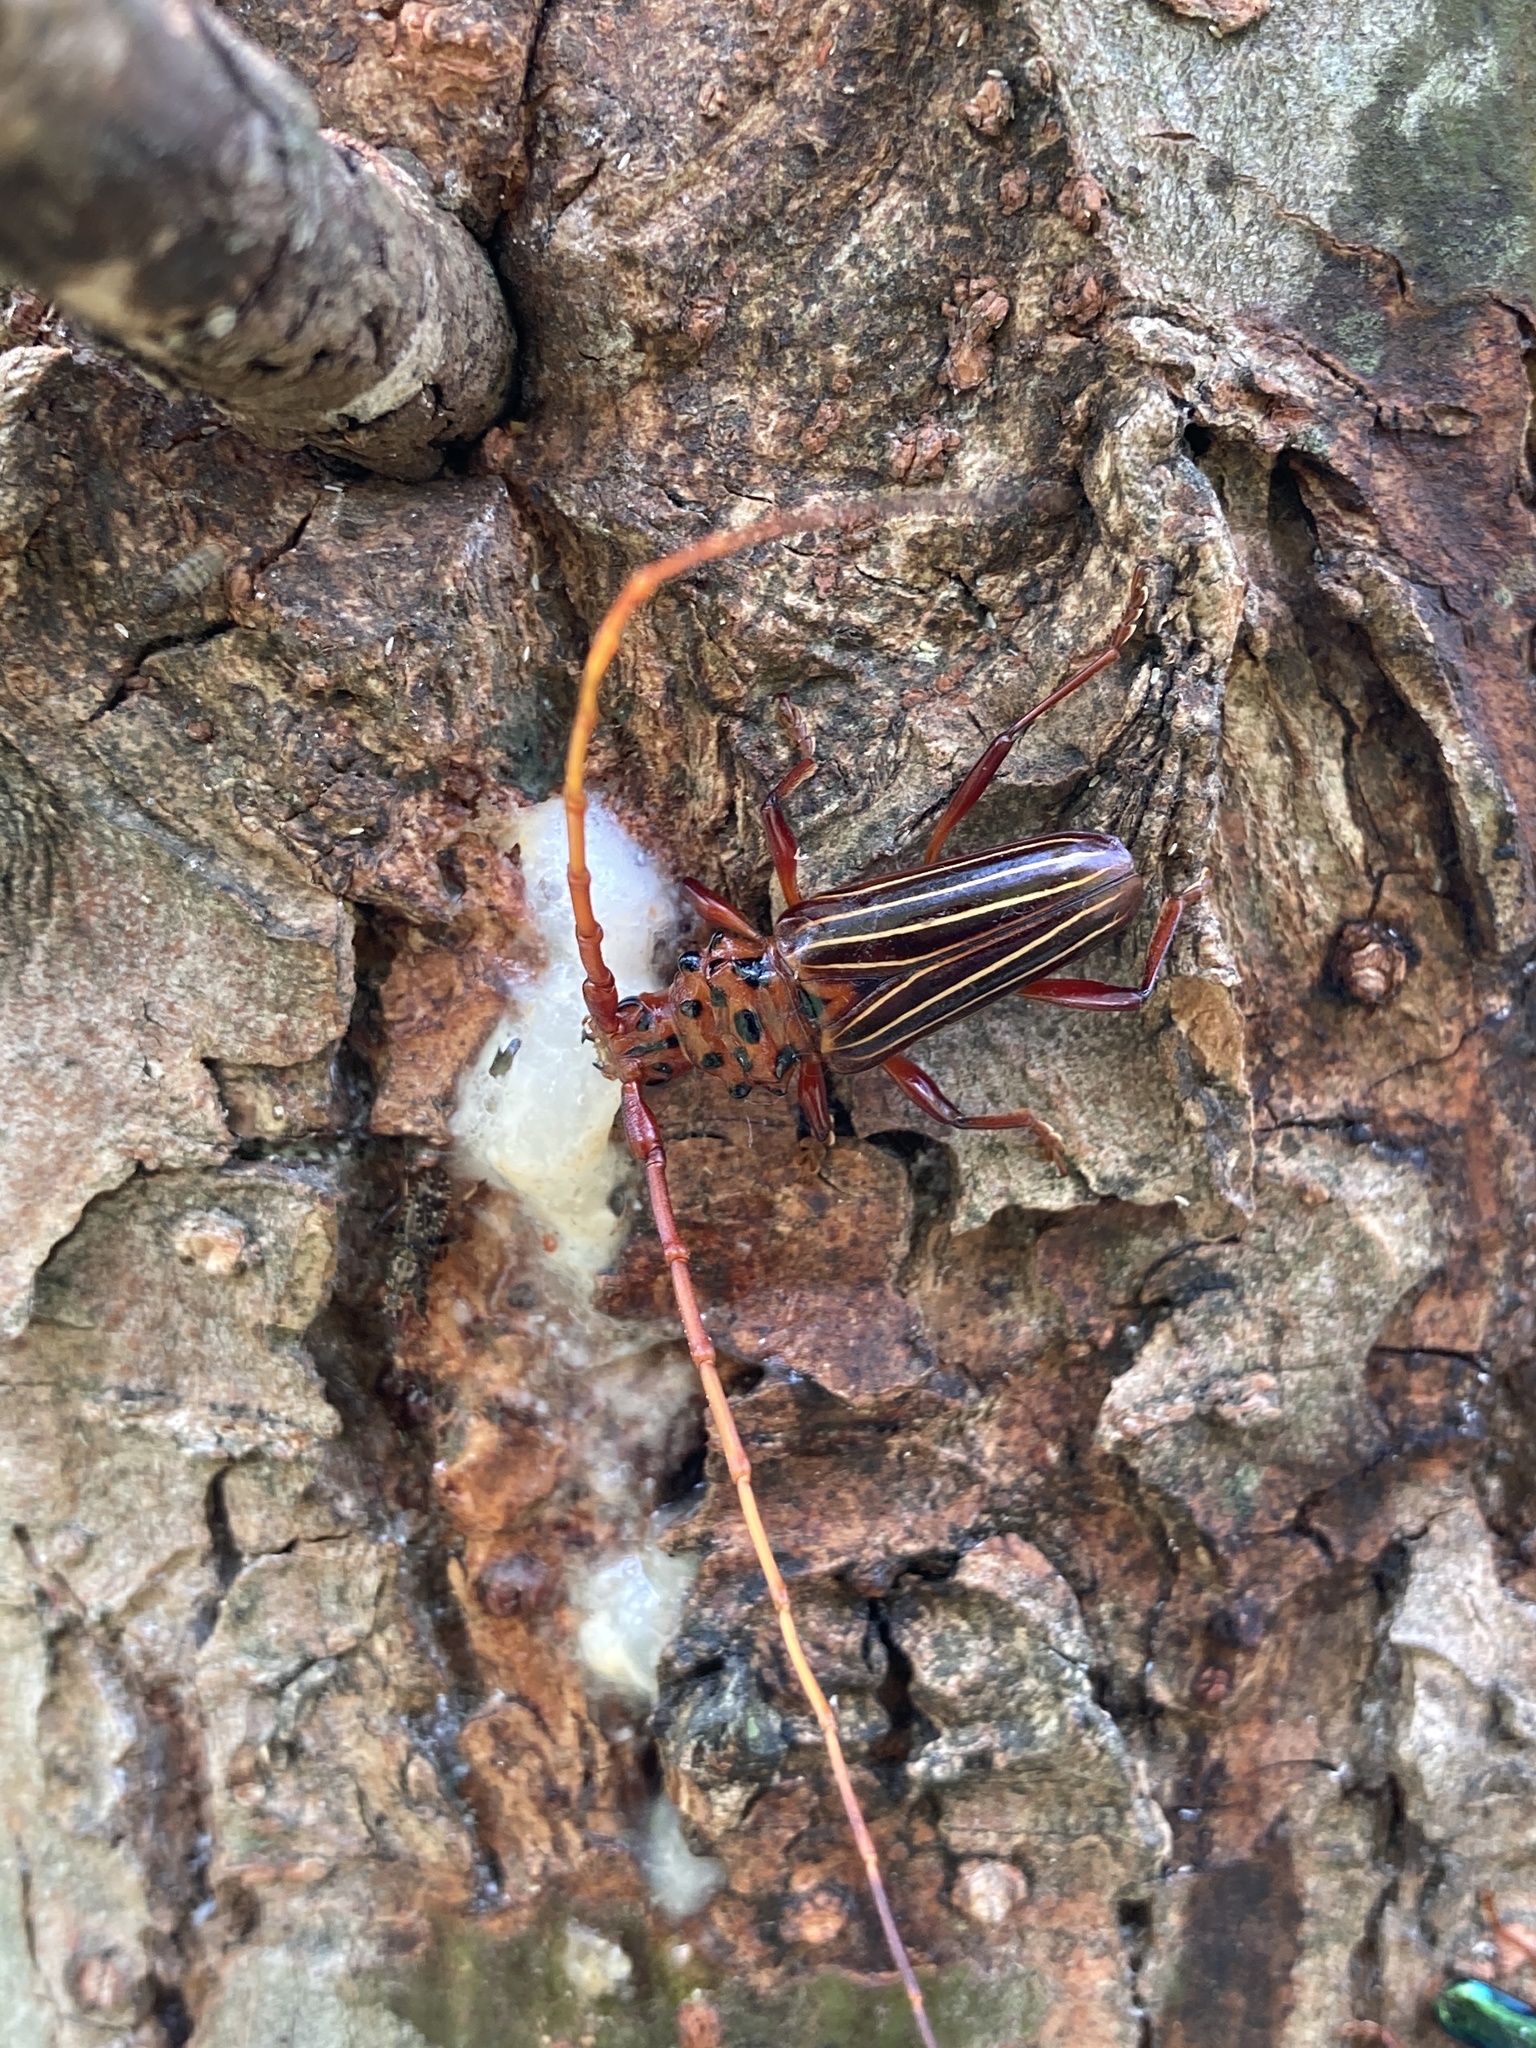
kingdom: Animalia
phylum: Arthropoda
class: Insecta
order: Coleoptera
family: Cerambycidae
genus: Chydarteres
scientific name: Chydarteres striatus
